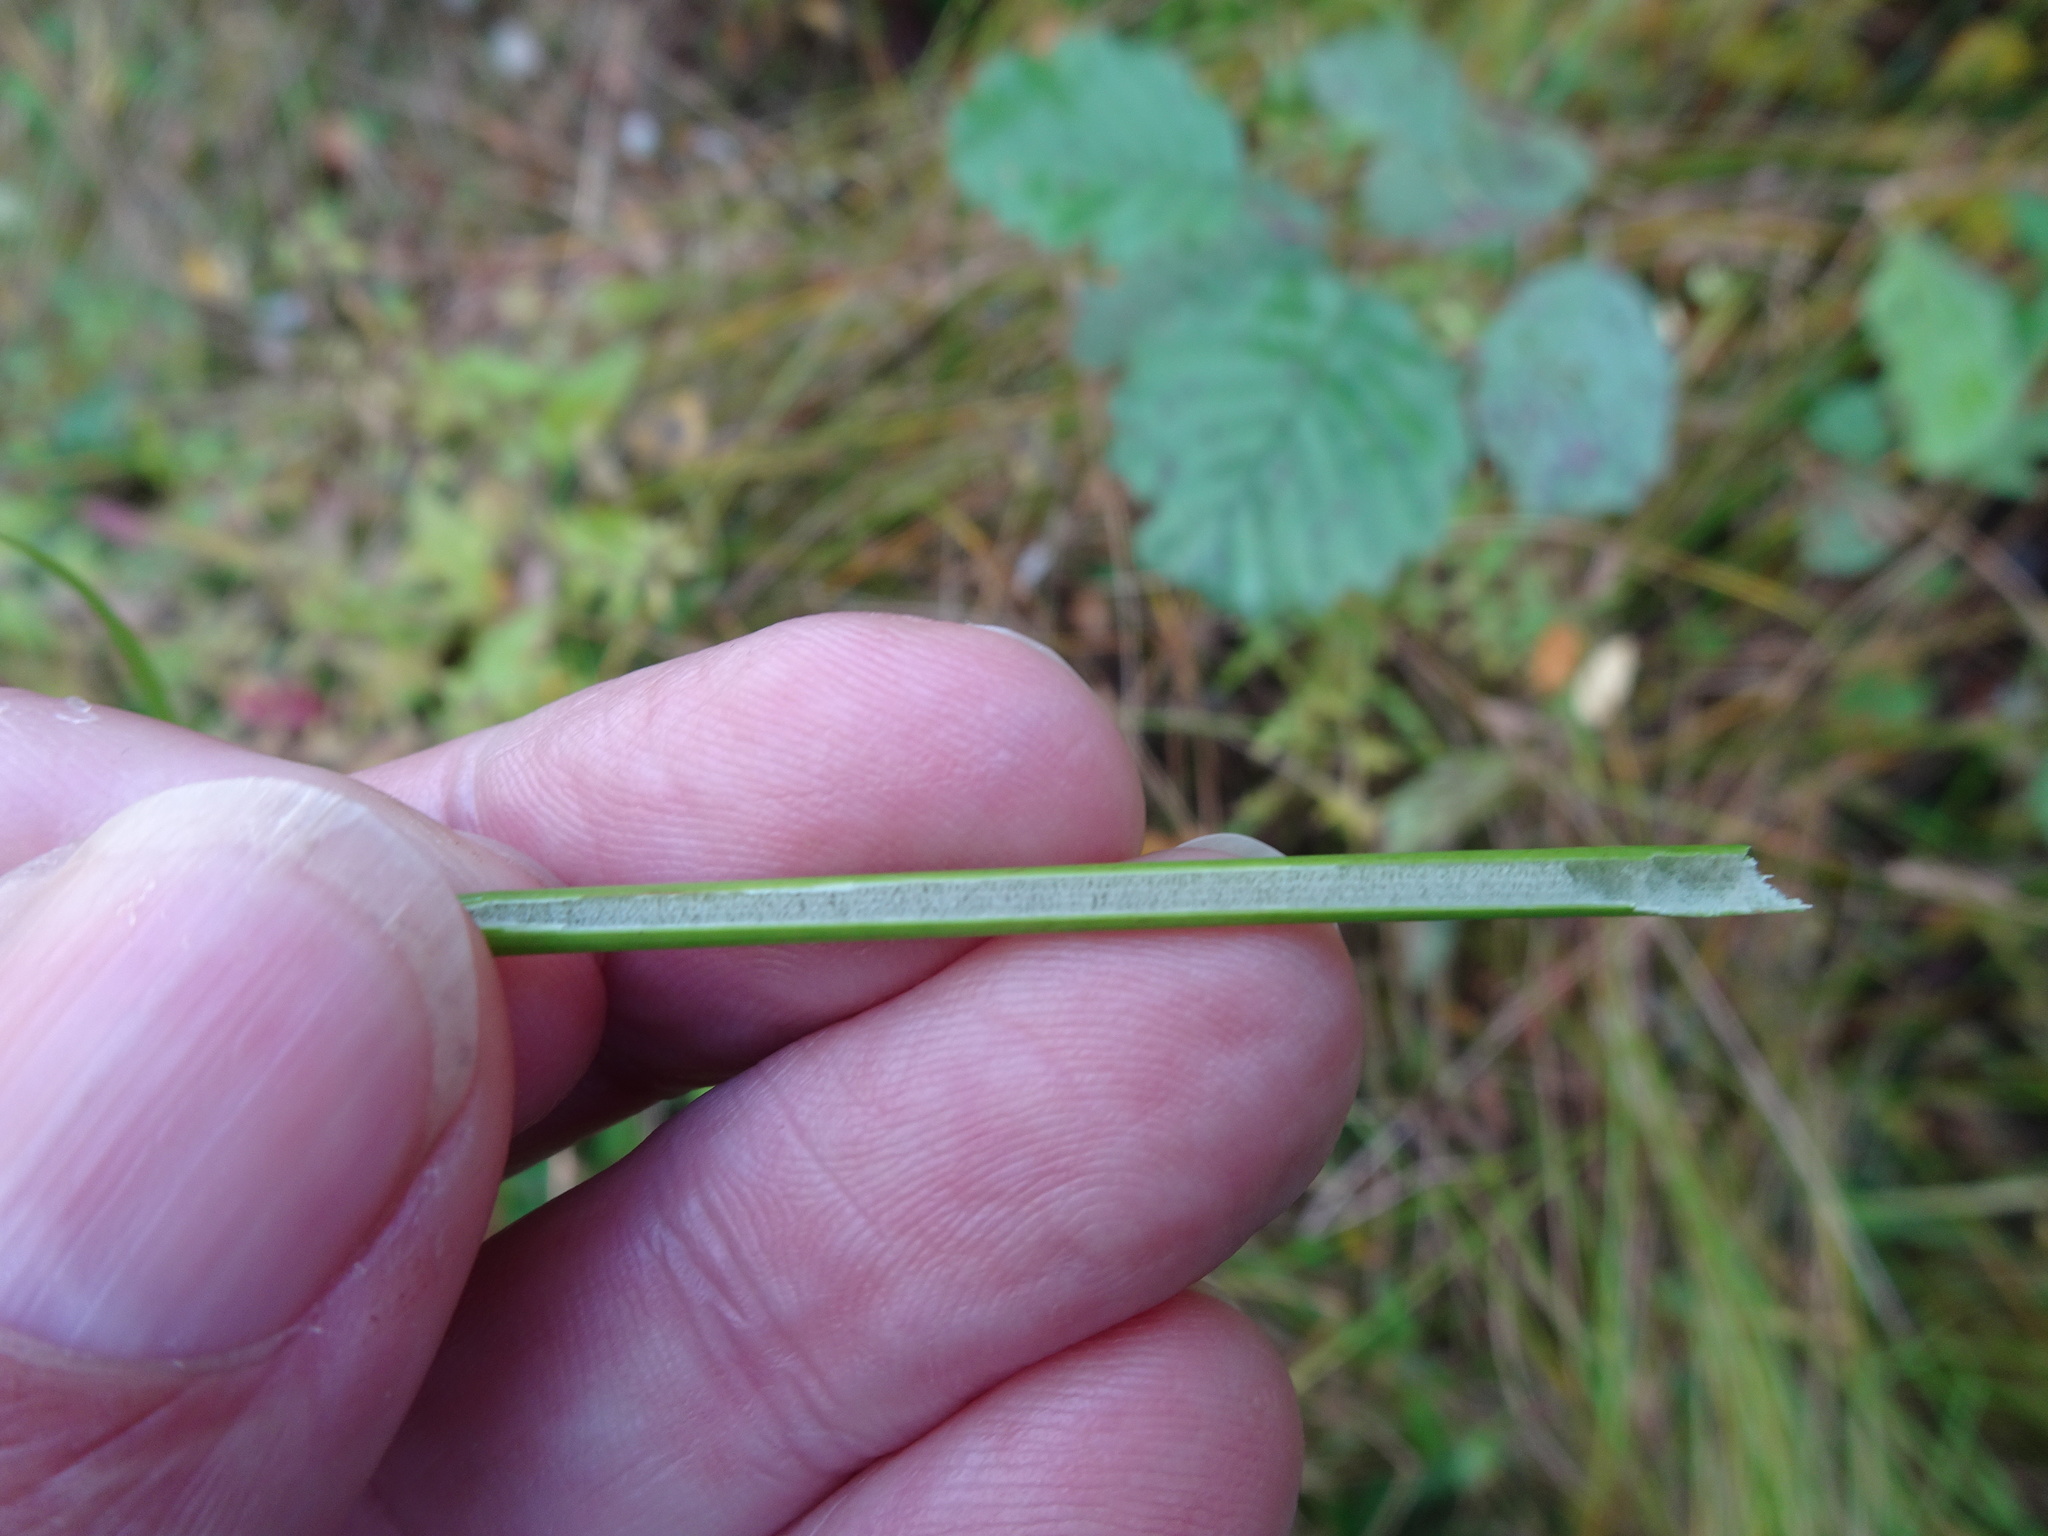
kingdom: Plantae
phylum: Tracheophyta
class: Liliopsida
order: Poales
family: Juncaceae
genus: Juncus
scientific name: Juncus effusus
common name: Soft rush
